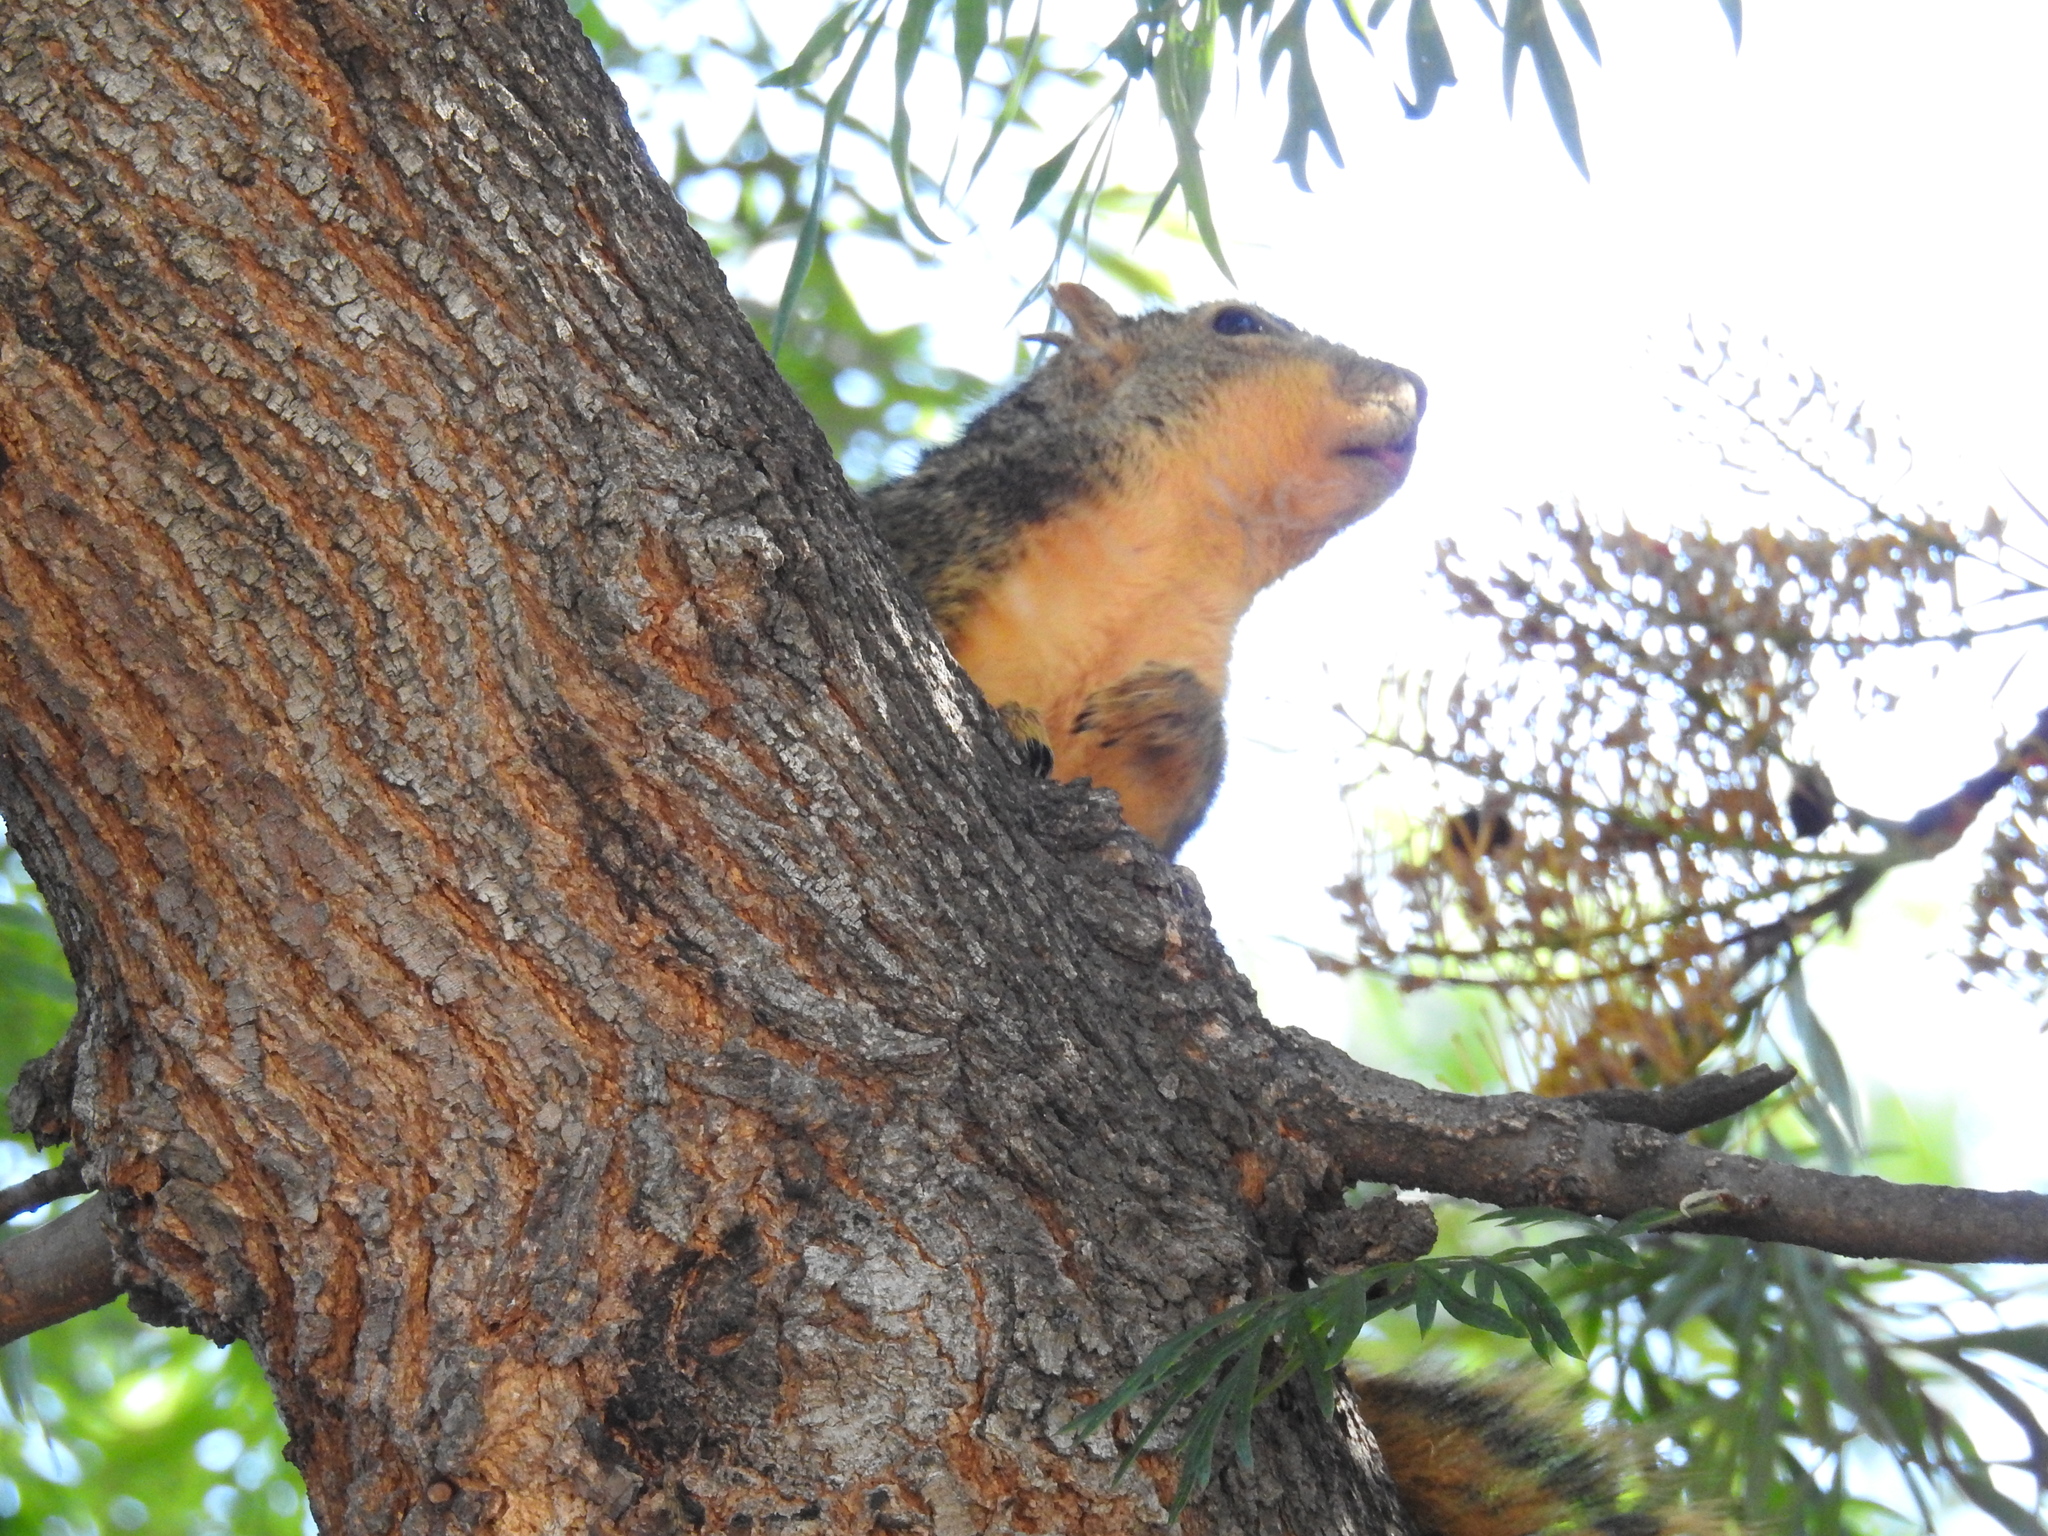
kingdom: Animalia
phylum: Chordata
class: Mammalia
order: Rodentia
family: Sciuridae
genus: Sciurus
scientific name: Sciurus niger
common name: Fox squirrel
